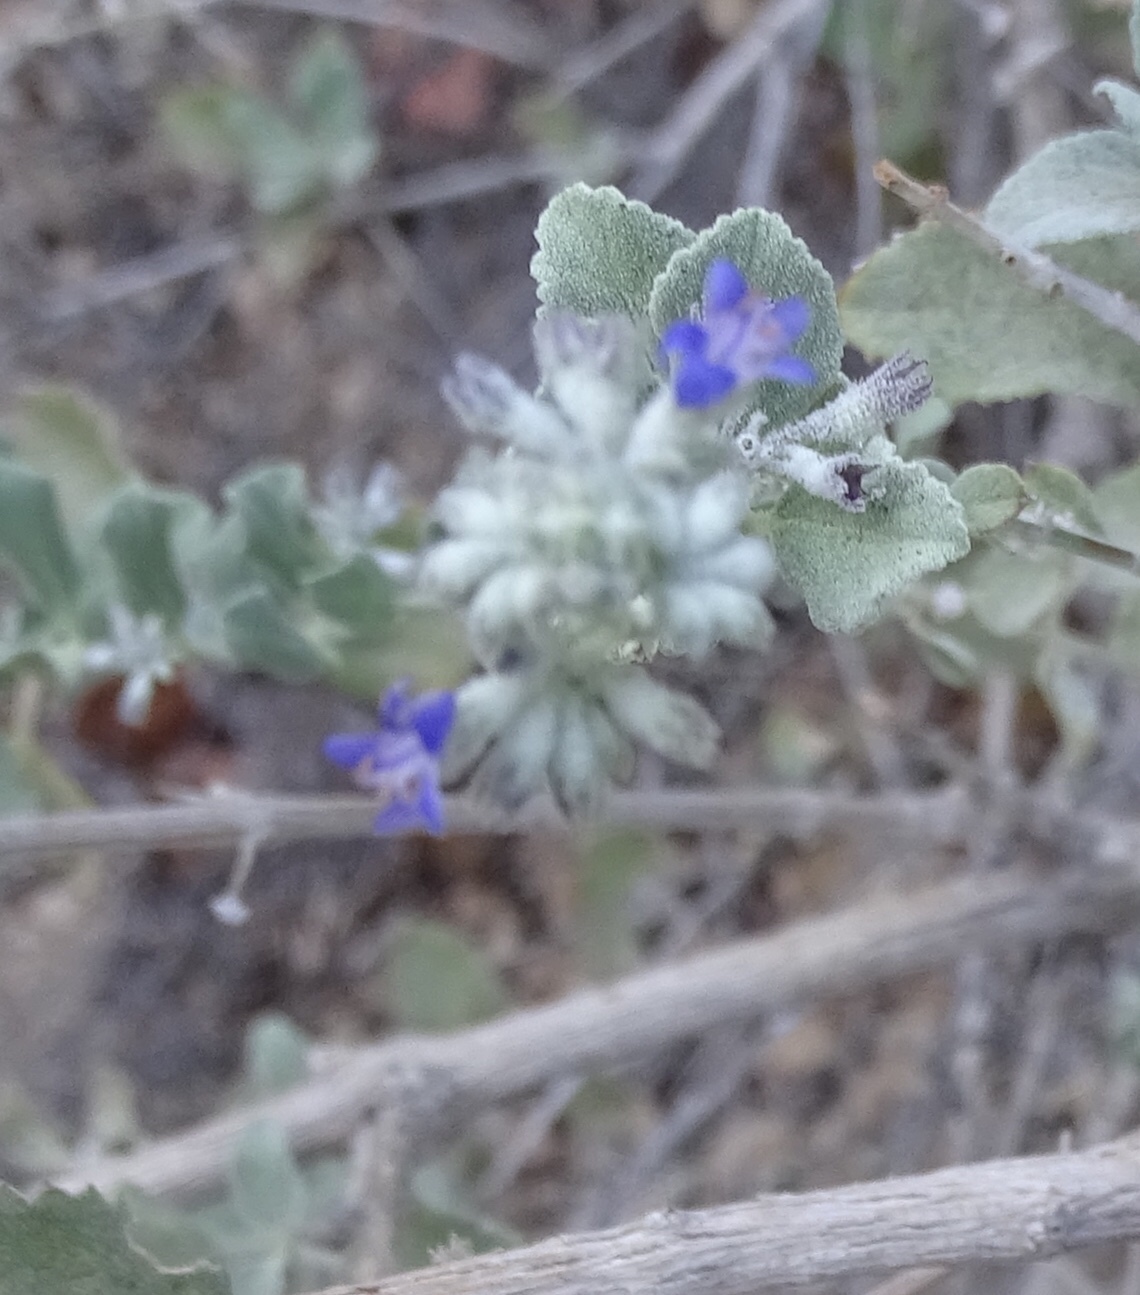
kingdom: Plantae
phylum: Tracheophyta
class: Magnoliopsida
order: Lamiales
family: Lamiaceae
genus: Condea
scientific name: Condea emoryi
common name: Chia
